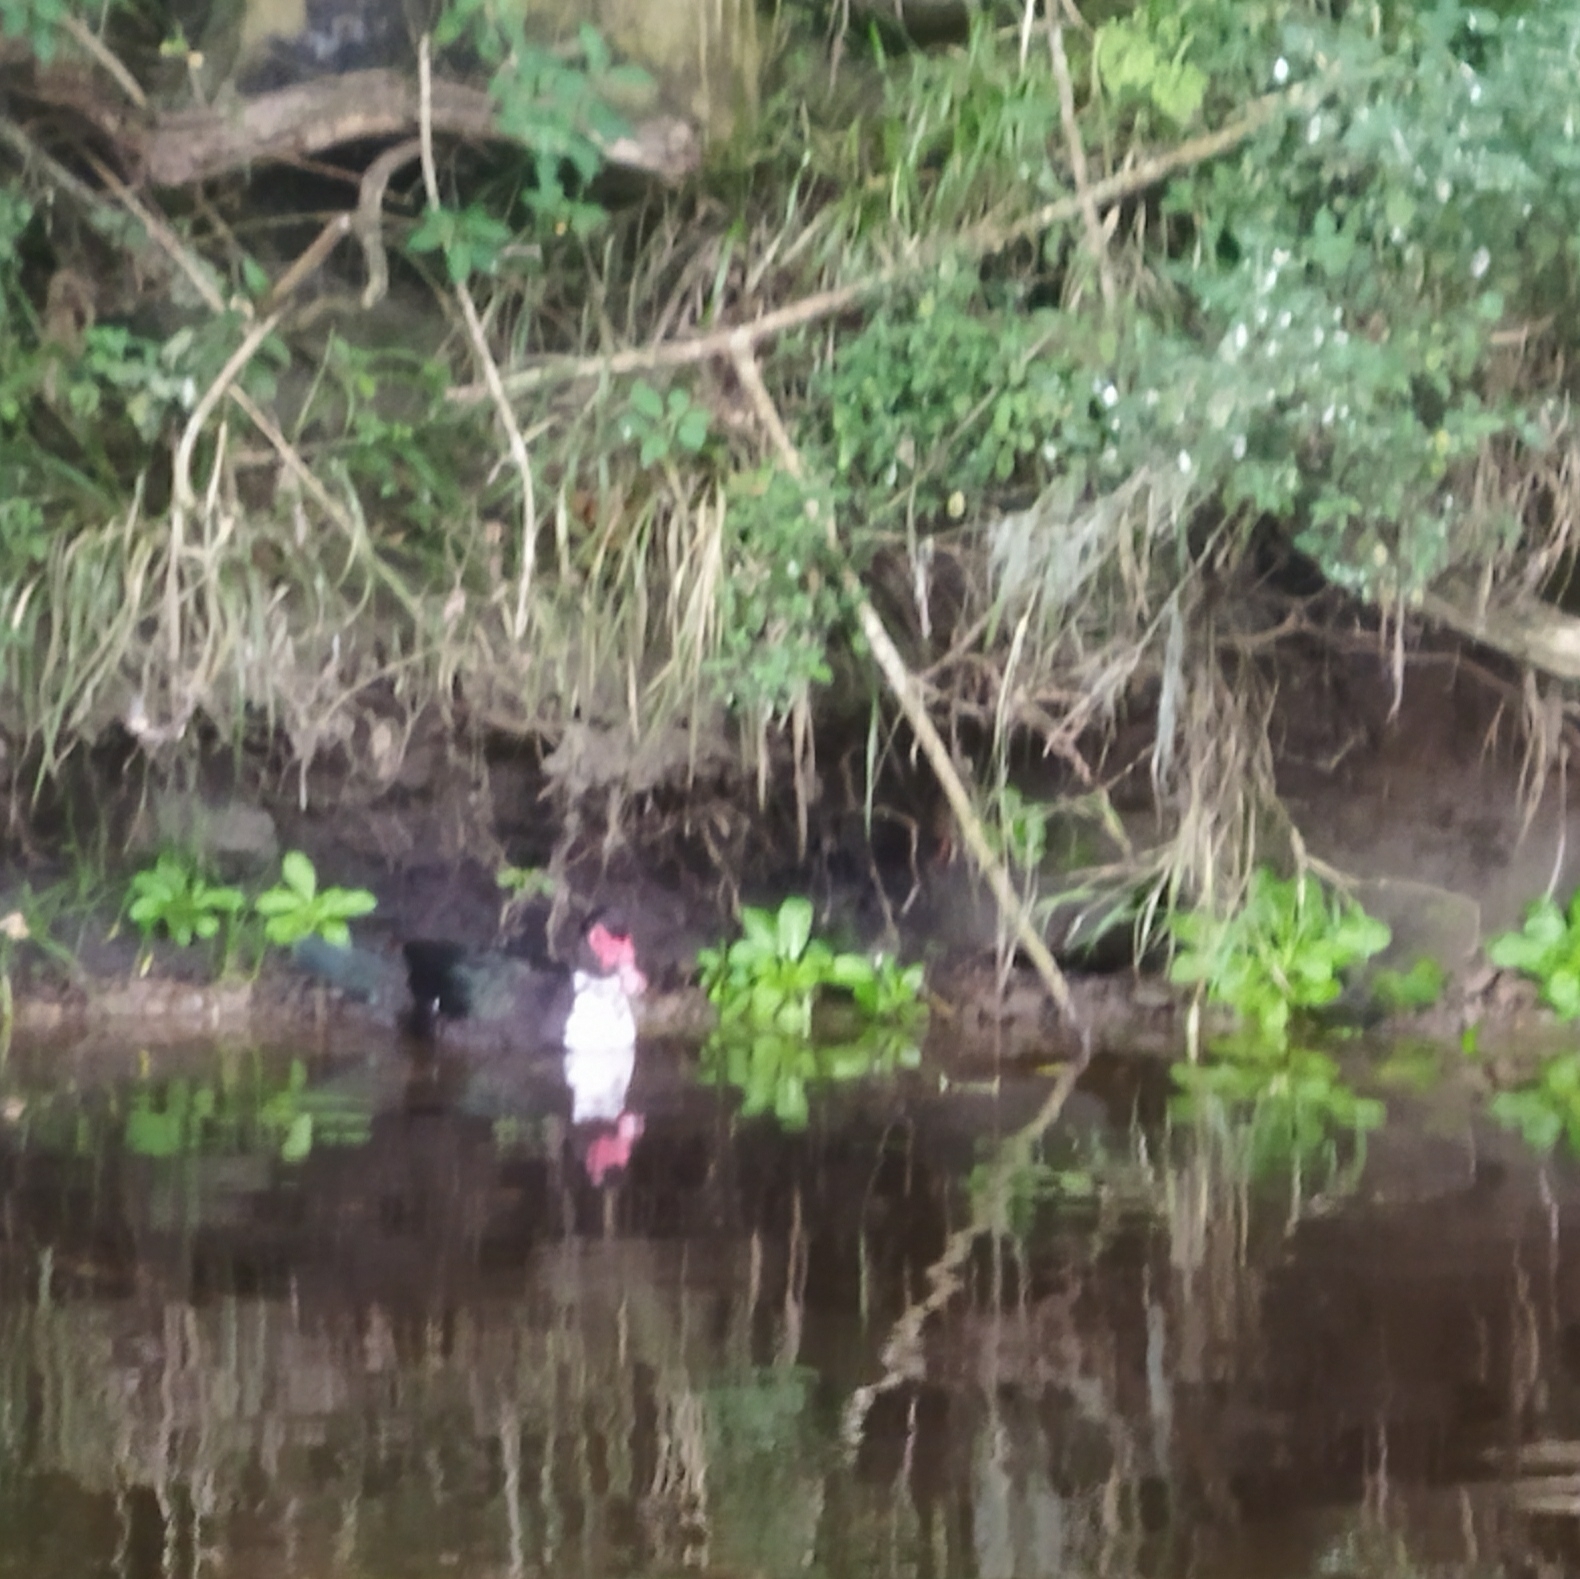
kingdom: Animalia
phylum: Chordata
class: Aves
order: Anseriformes
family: Anatidae
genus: Cairina
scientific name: Cairina moschata
